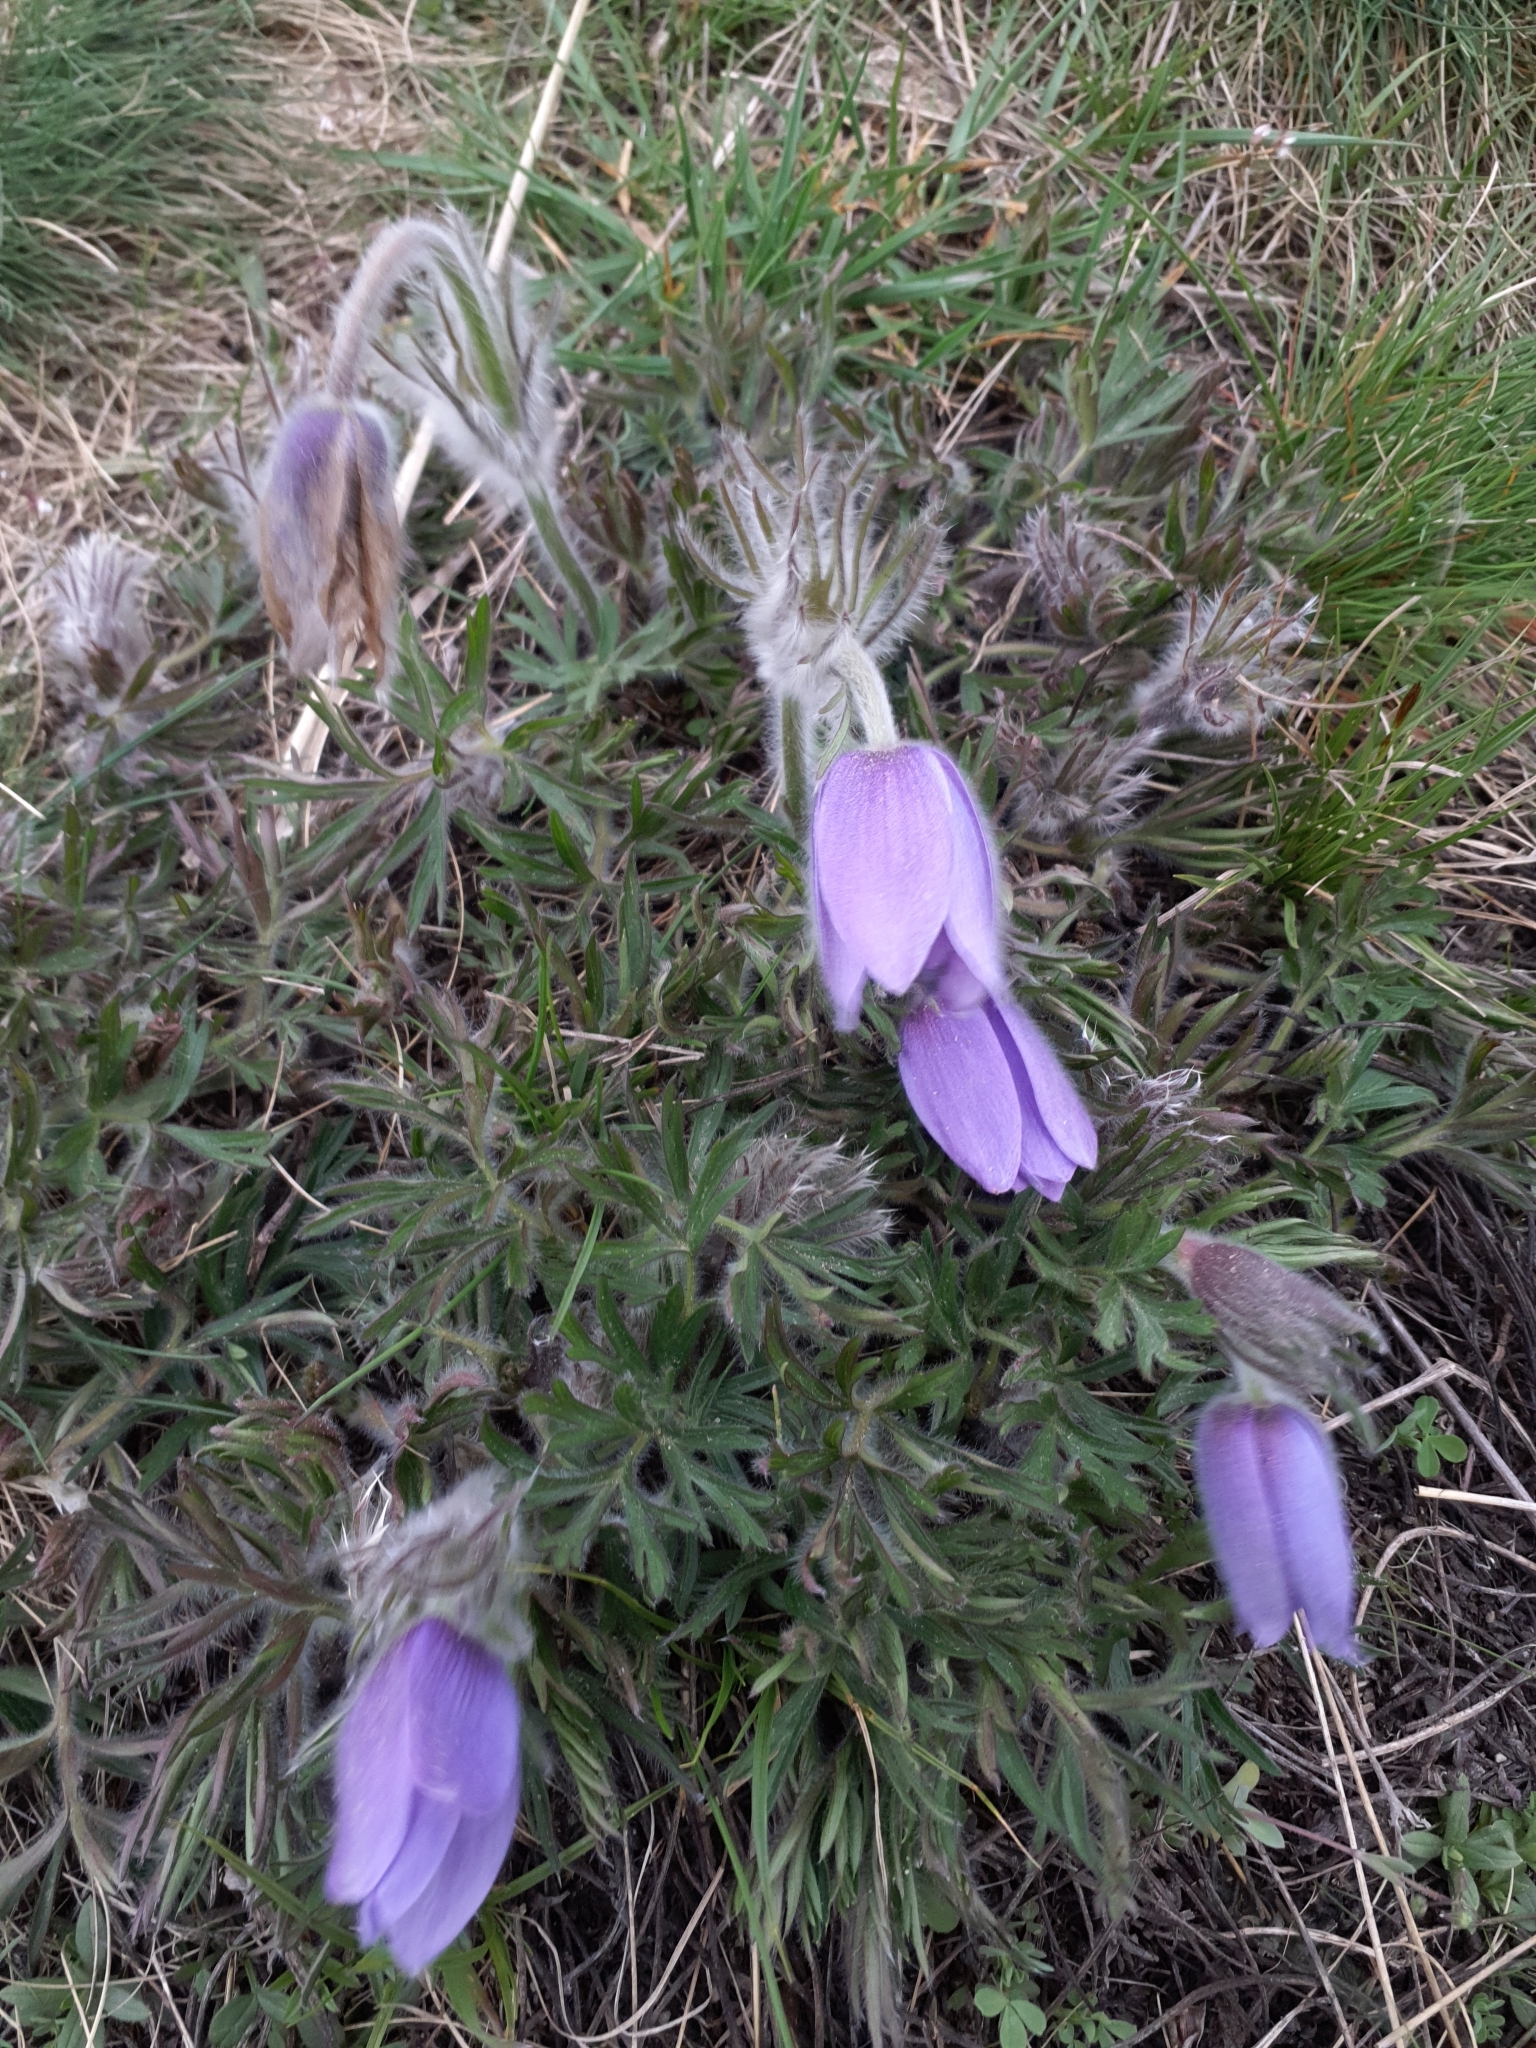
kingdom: Plantae
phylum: Tracheophyta
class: Magnoliopsida
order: Ranunculales
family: Ranunculaceae
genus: Pulsatilla
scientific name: Pulsatilla grandis
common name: Greater pasque flower
